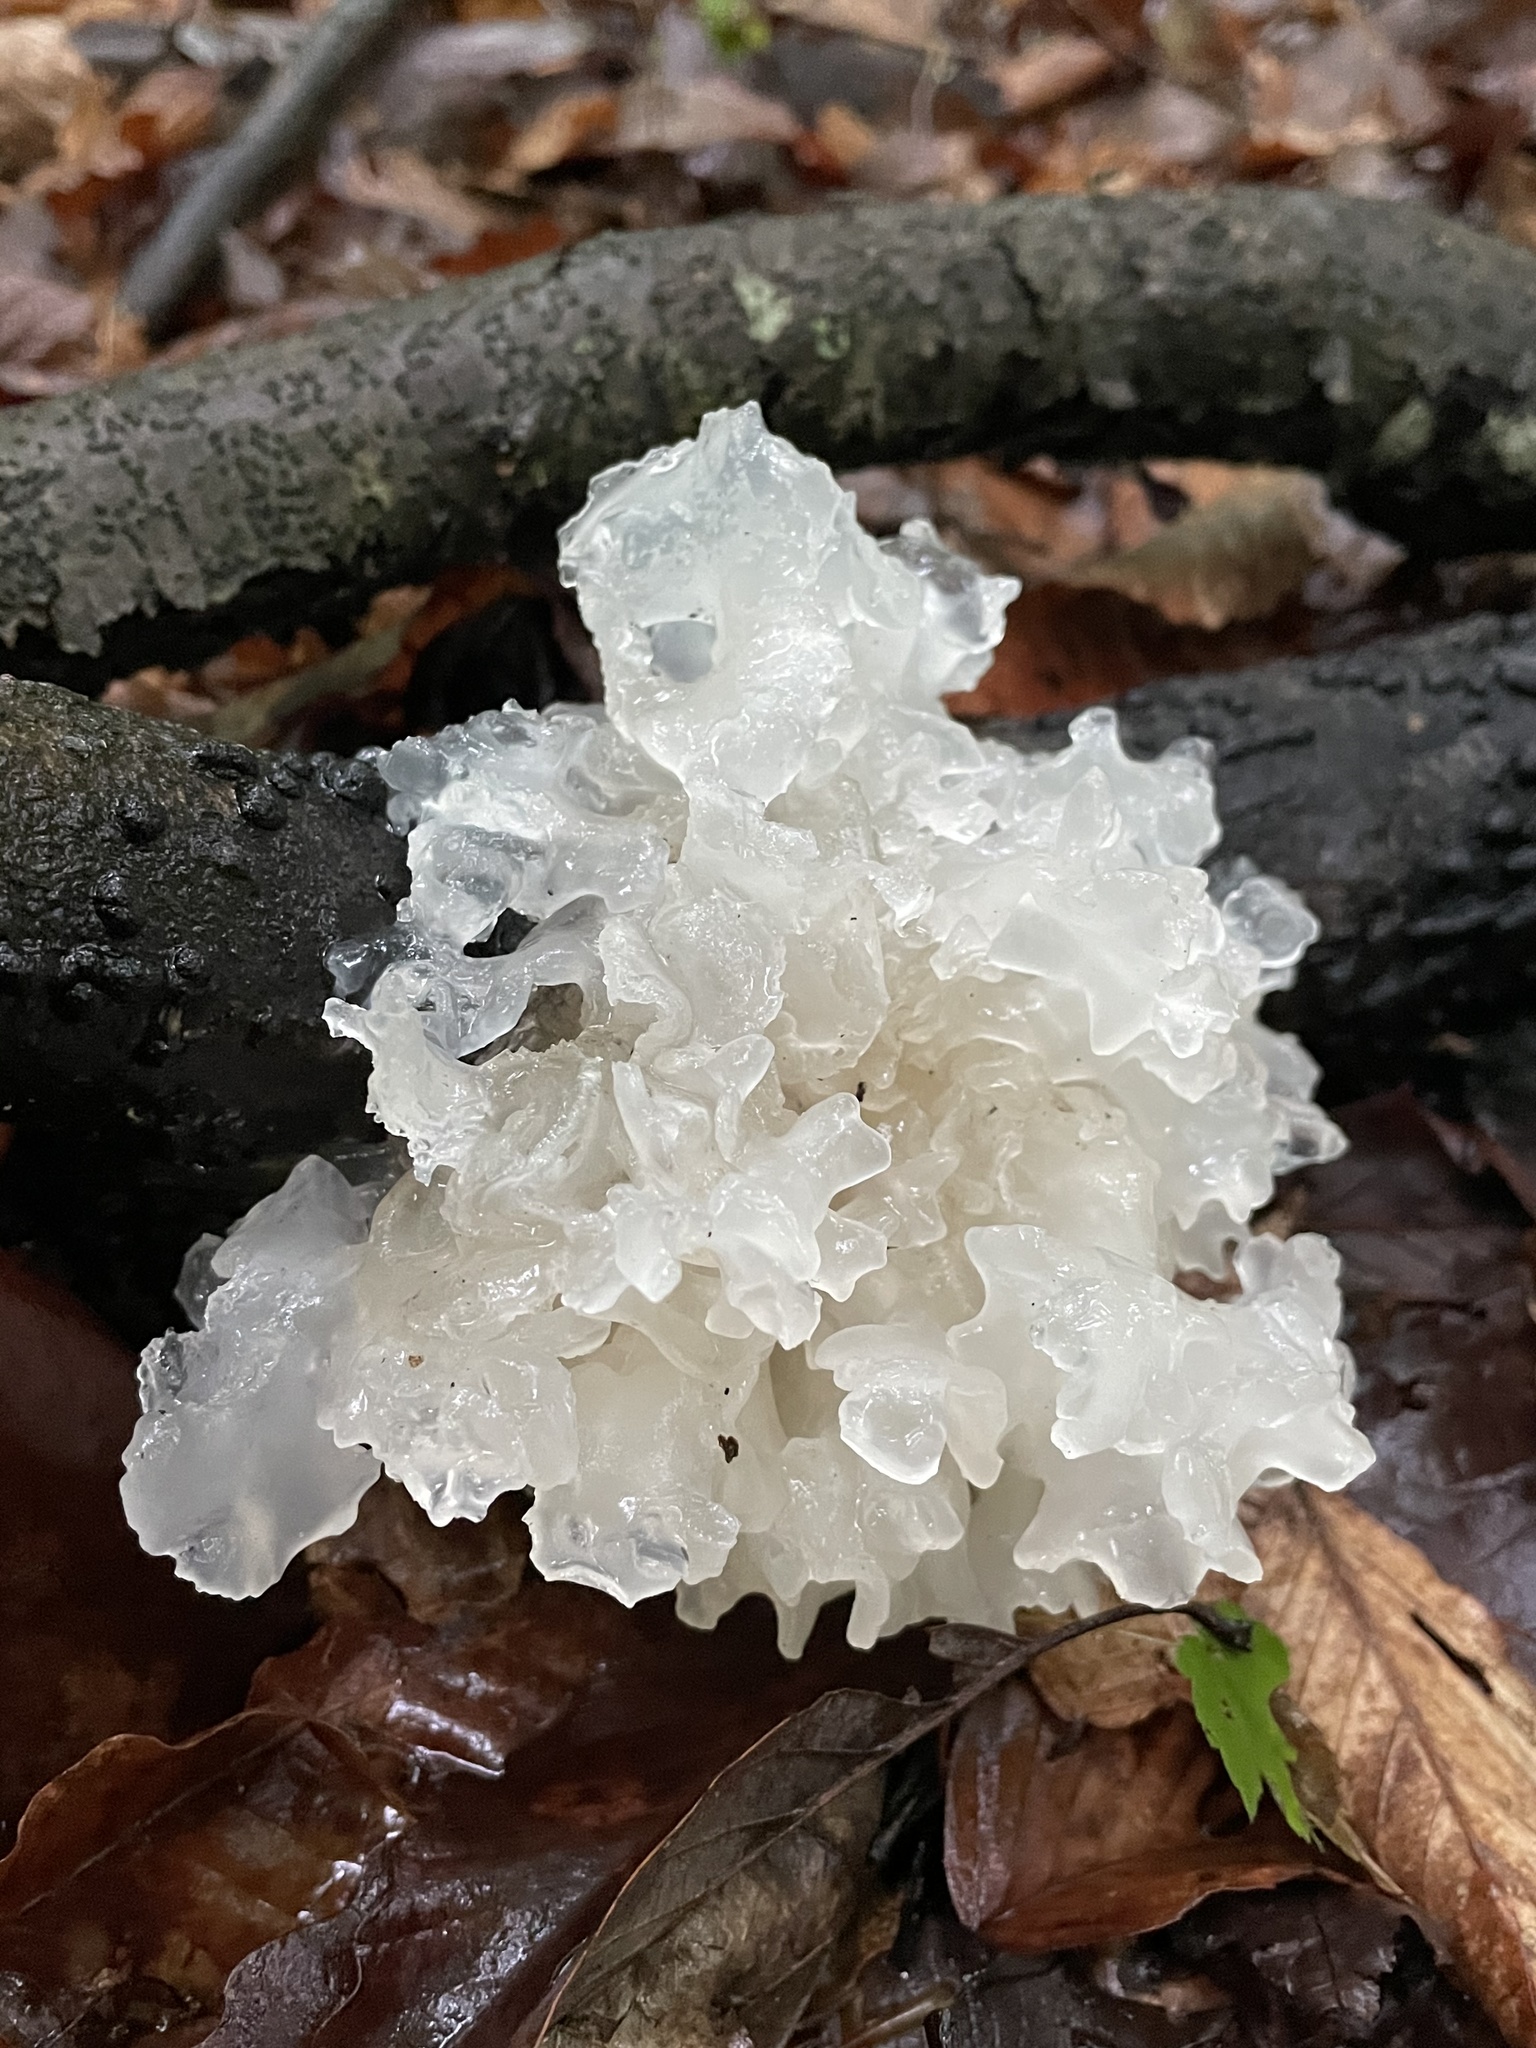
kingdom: Fungi
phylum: Basidiomycota
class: Tremellomycetes
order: Tremellales
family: Tremellaceae
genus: Tremella
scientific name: Tremella fuciformis
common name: Snow fungus
